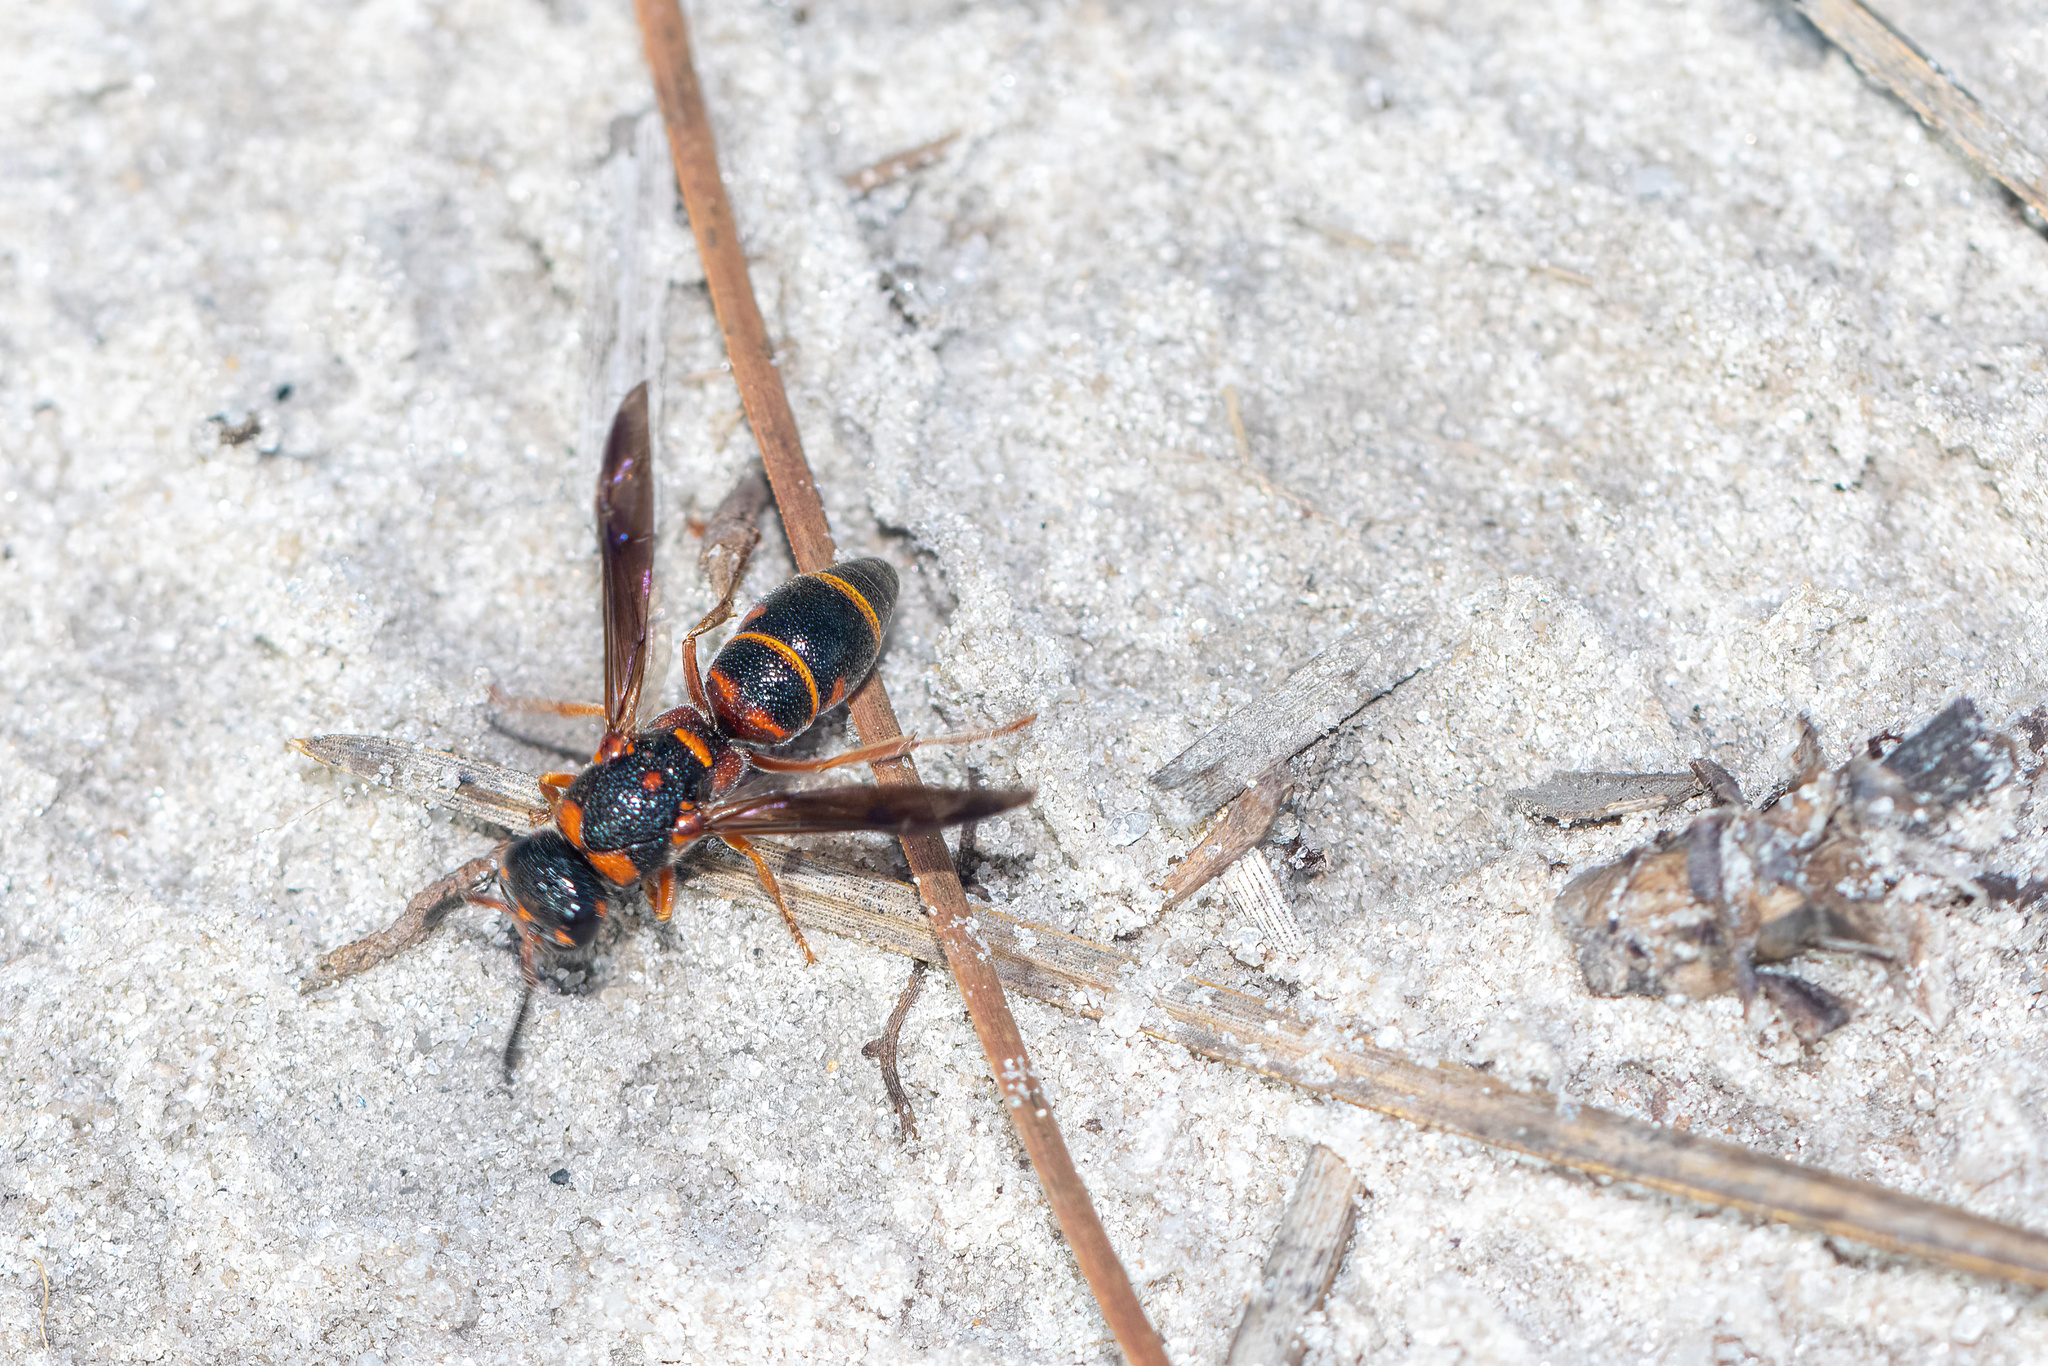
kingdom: Animalia
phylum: Arthropoda
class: Insecta
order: Hymenoptera
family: Eumenidae
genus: Parancistrocerus
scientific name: Parancistrocerus fulvipes
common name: Potter wasp
